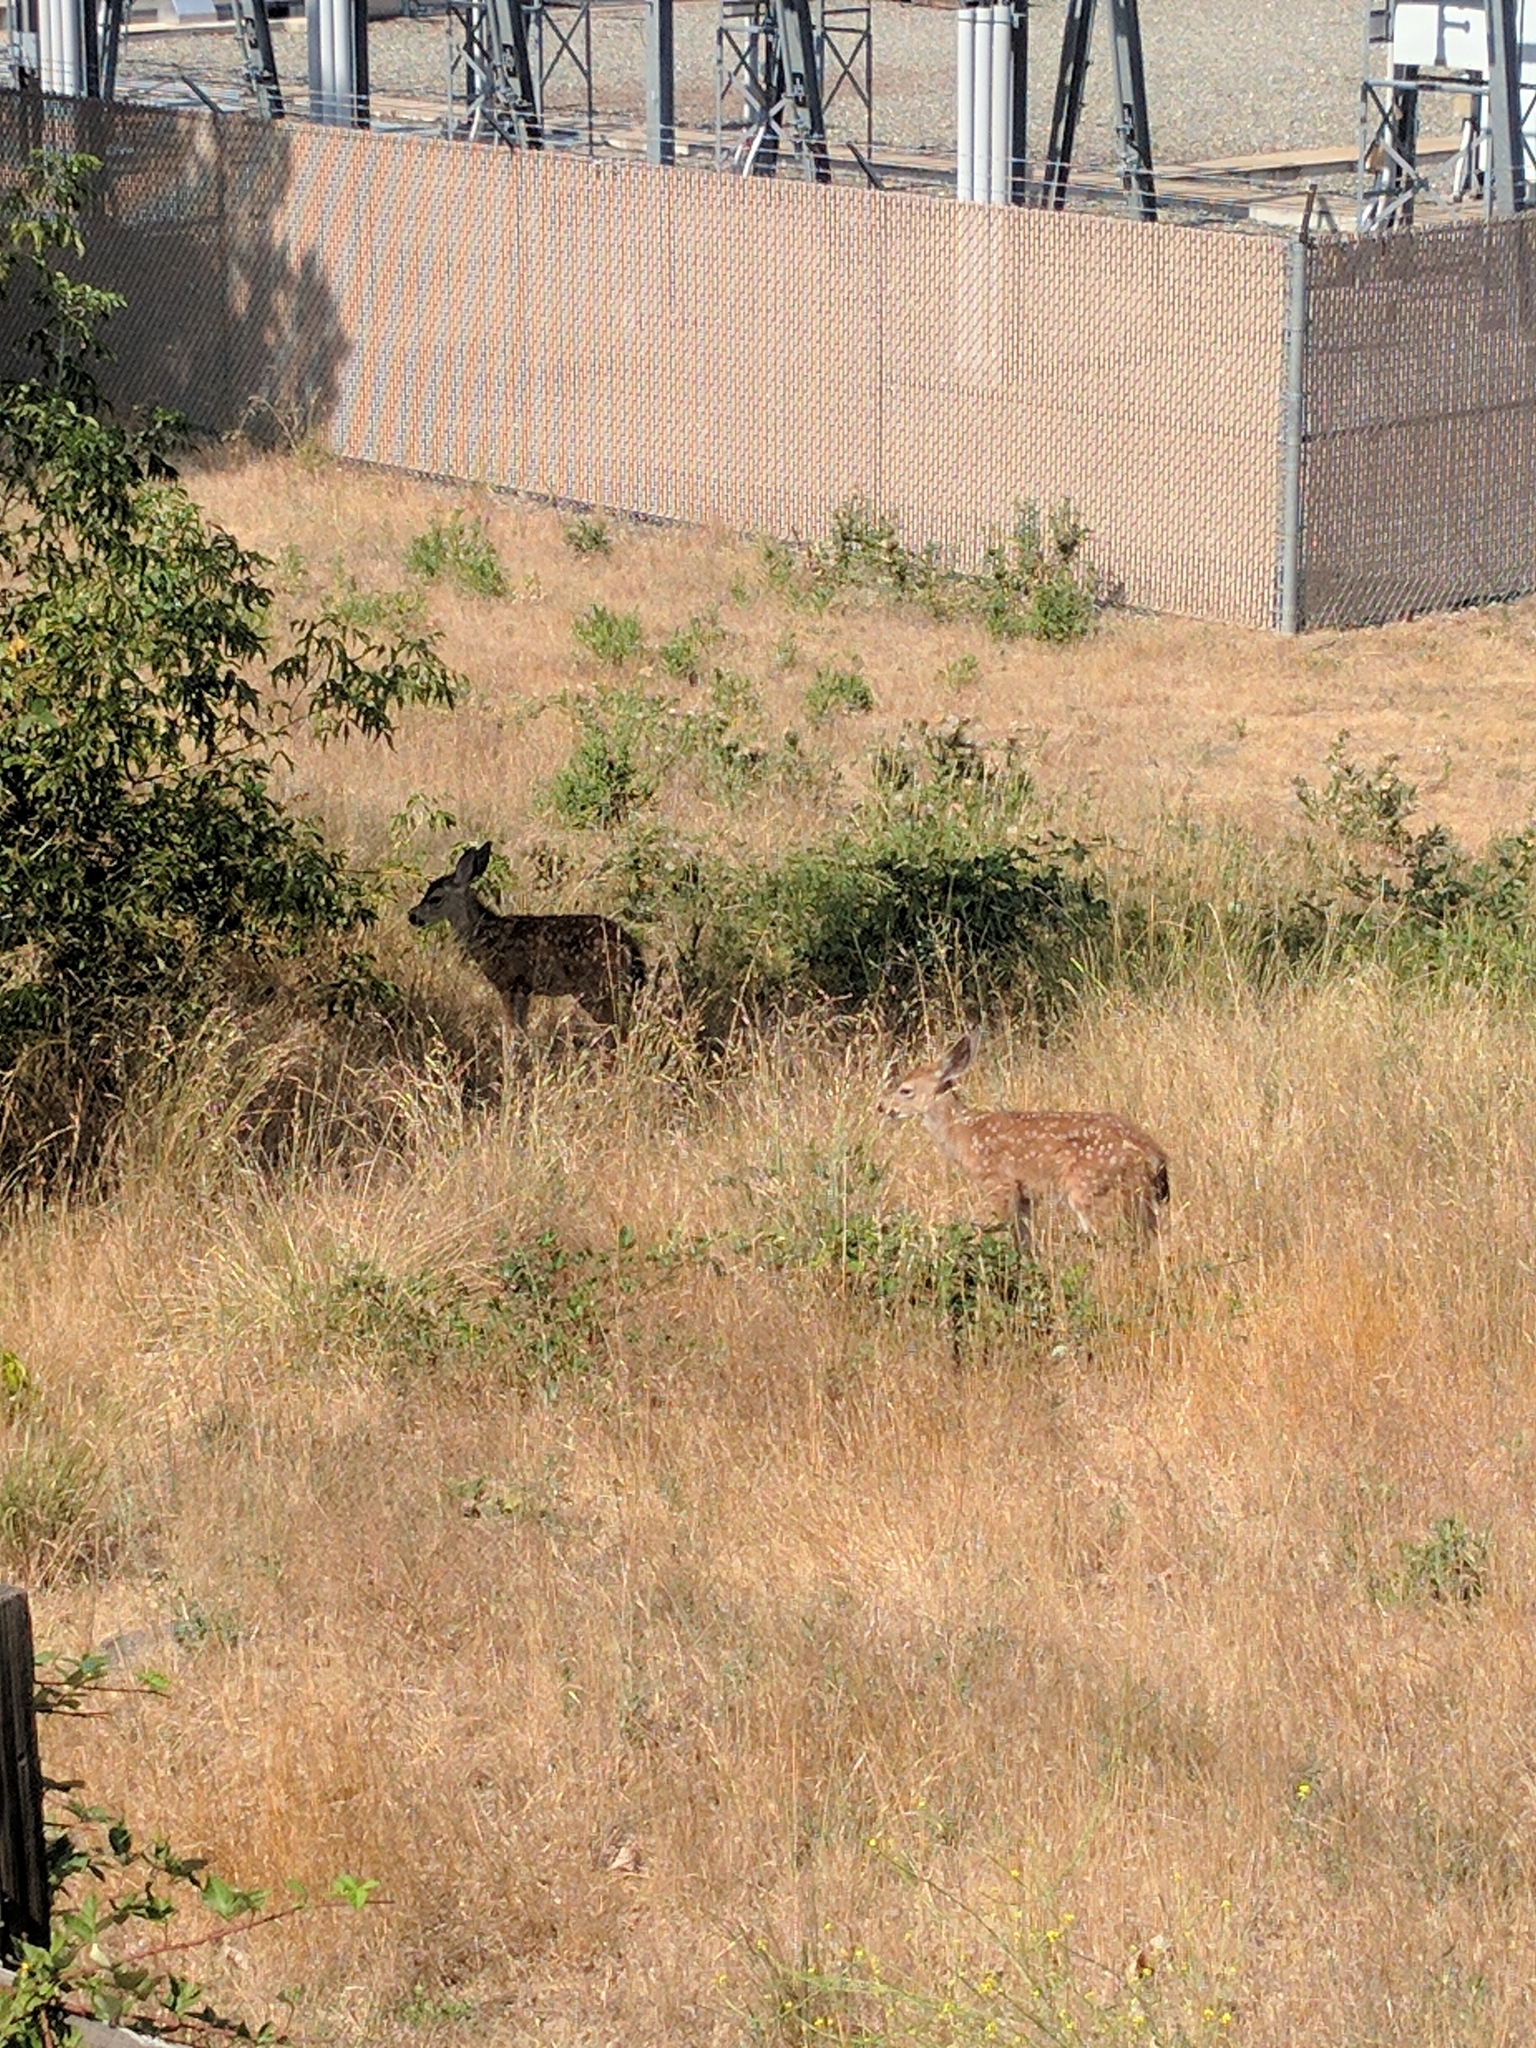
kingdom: Animalia
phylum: Chordata
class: Mammalia
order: Artiodactyla
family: Cervidae
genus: Odocoileus
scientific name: Odocoileus hemionus
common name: Mule deer
